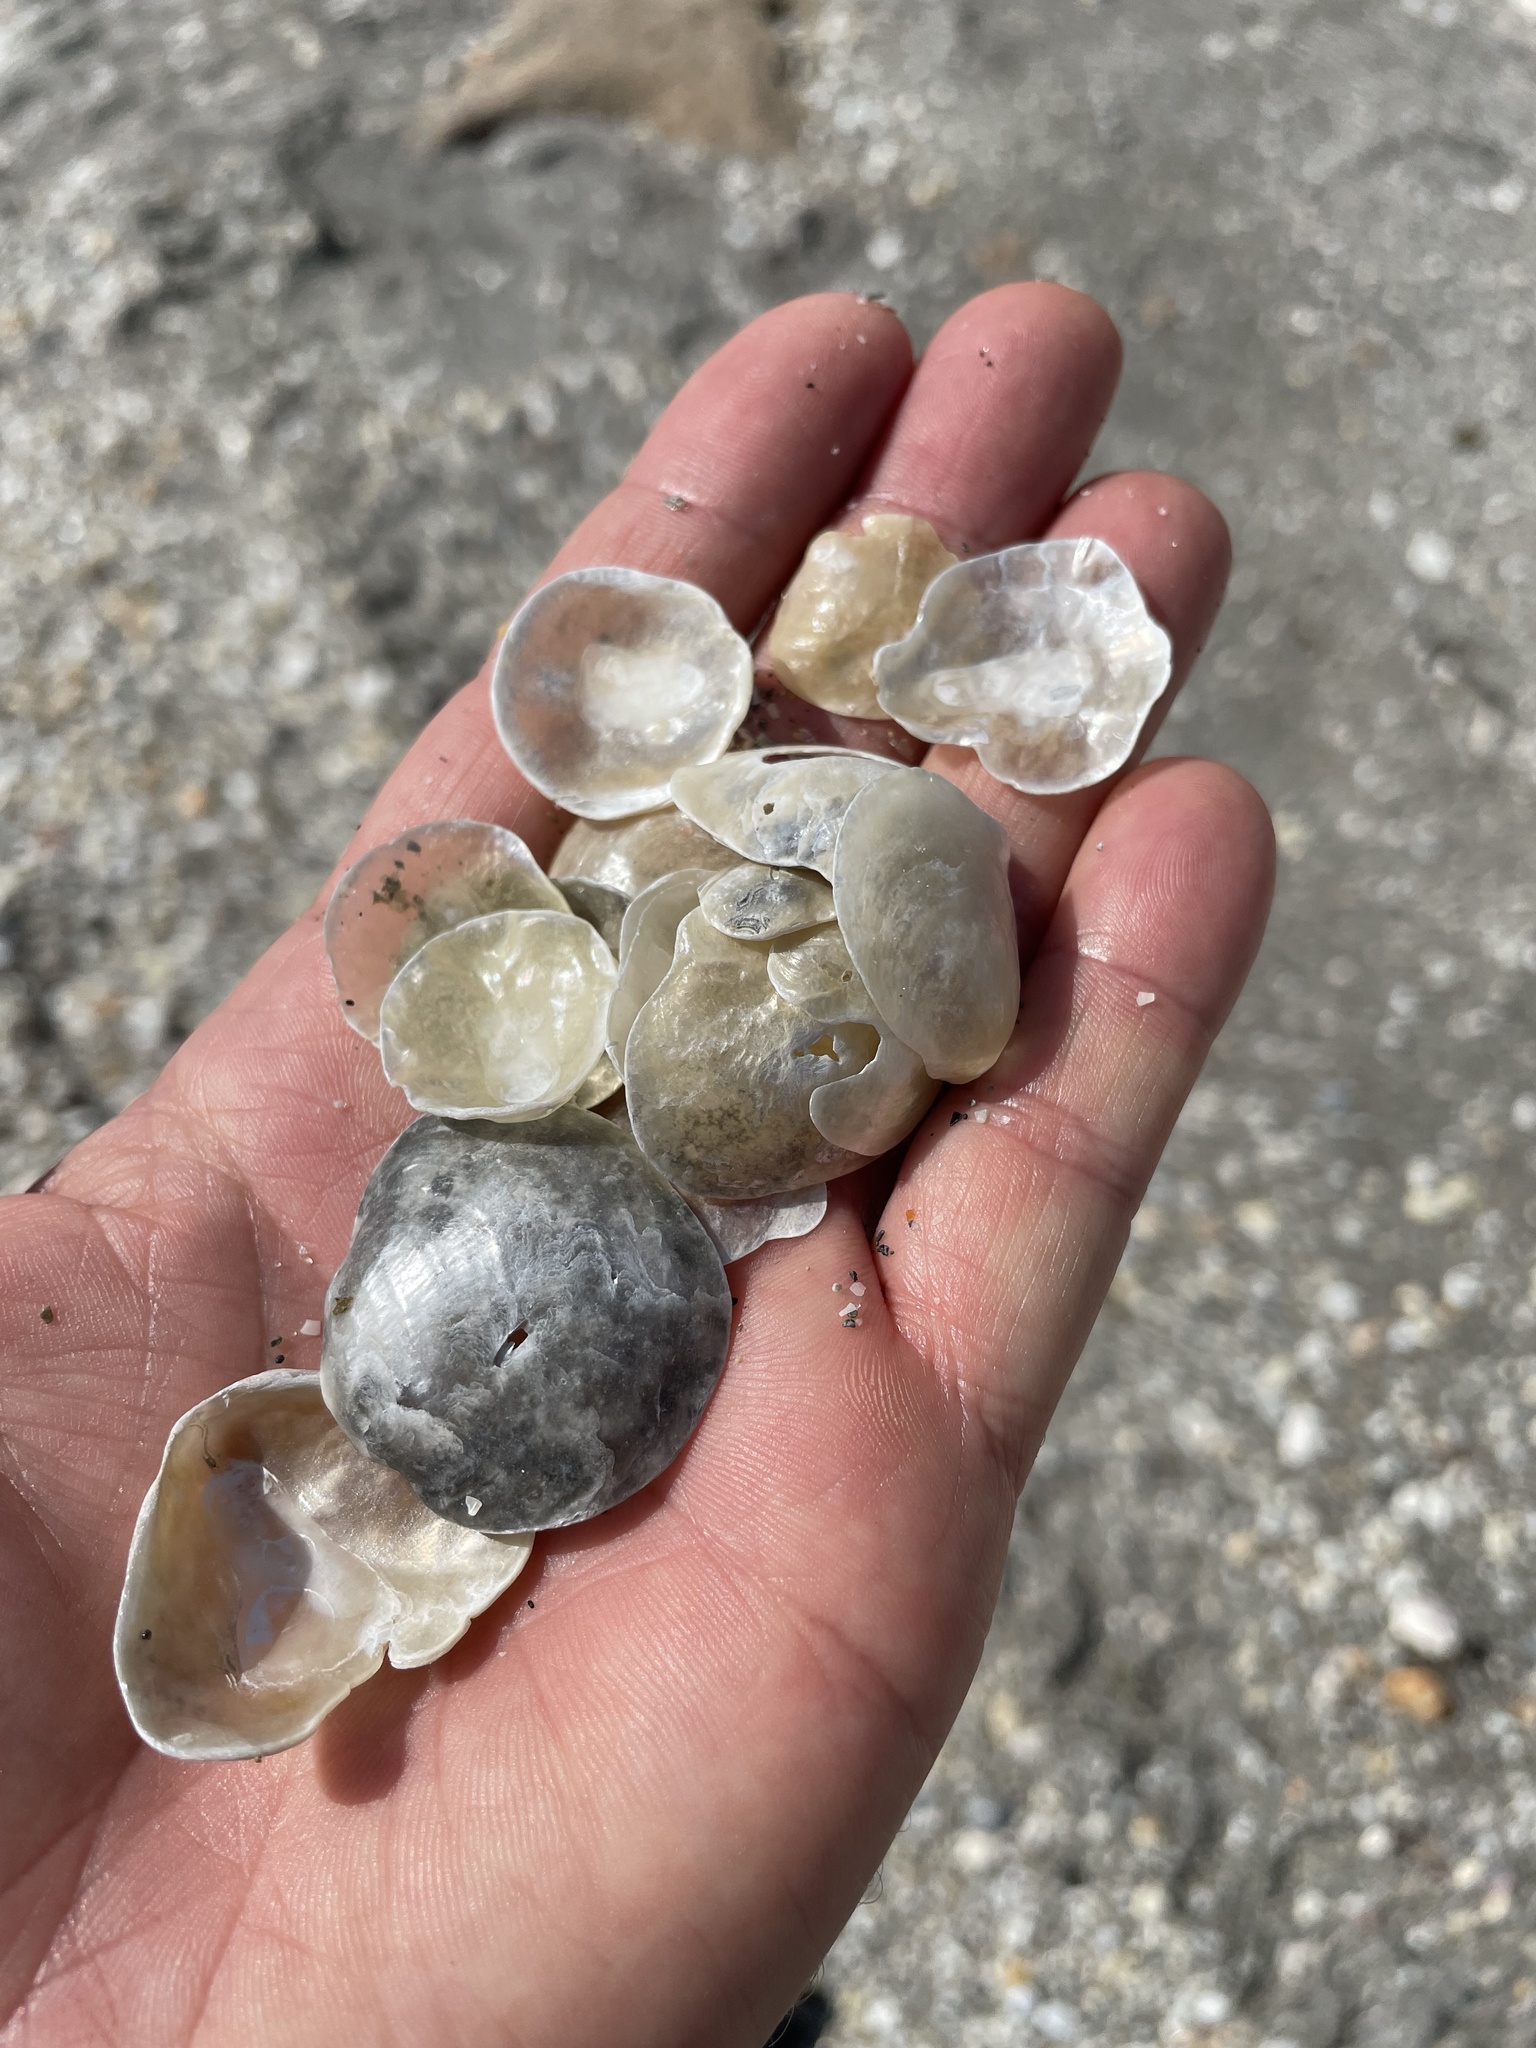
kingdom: Animalia
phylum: Mollusca
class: Bivalvia
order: Pectinida
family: Anomiidae
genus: Anomia
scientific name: Anomia simplex
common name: Common jingle shell
